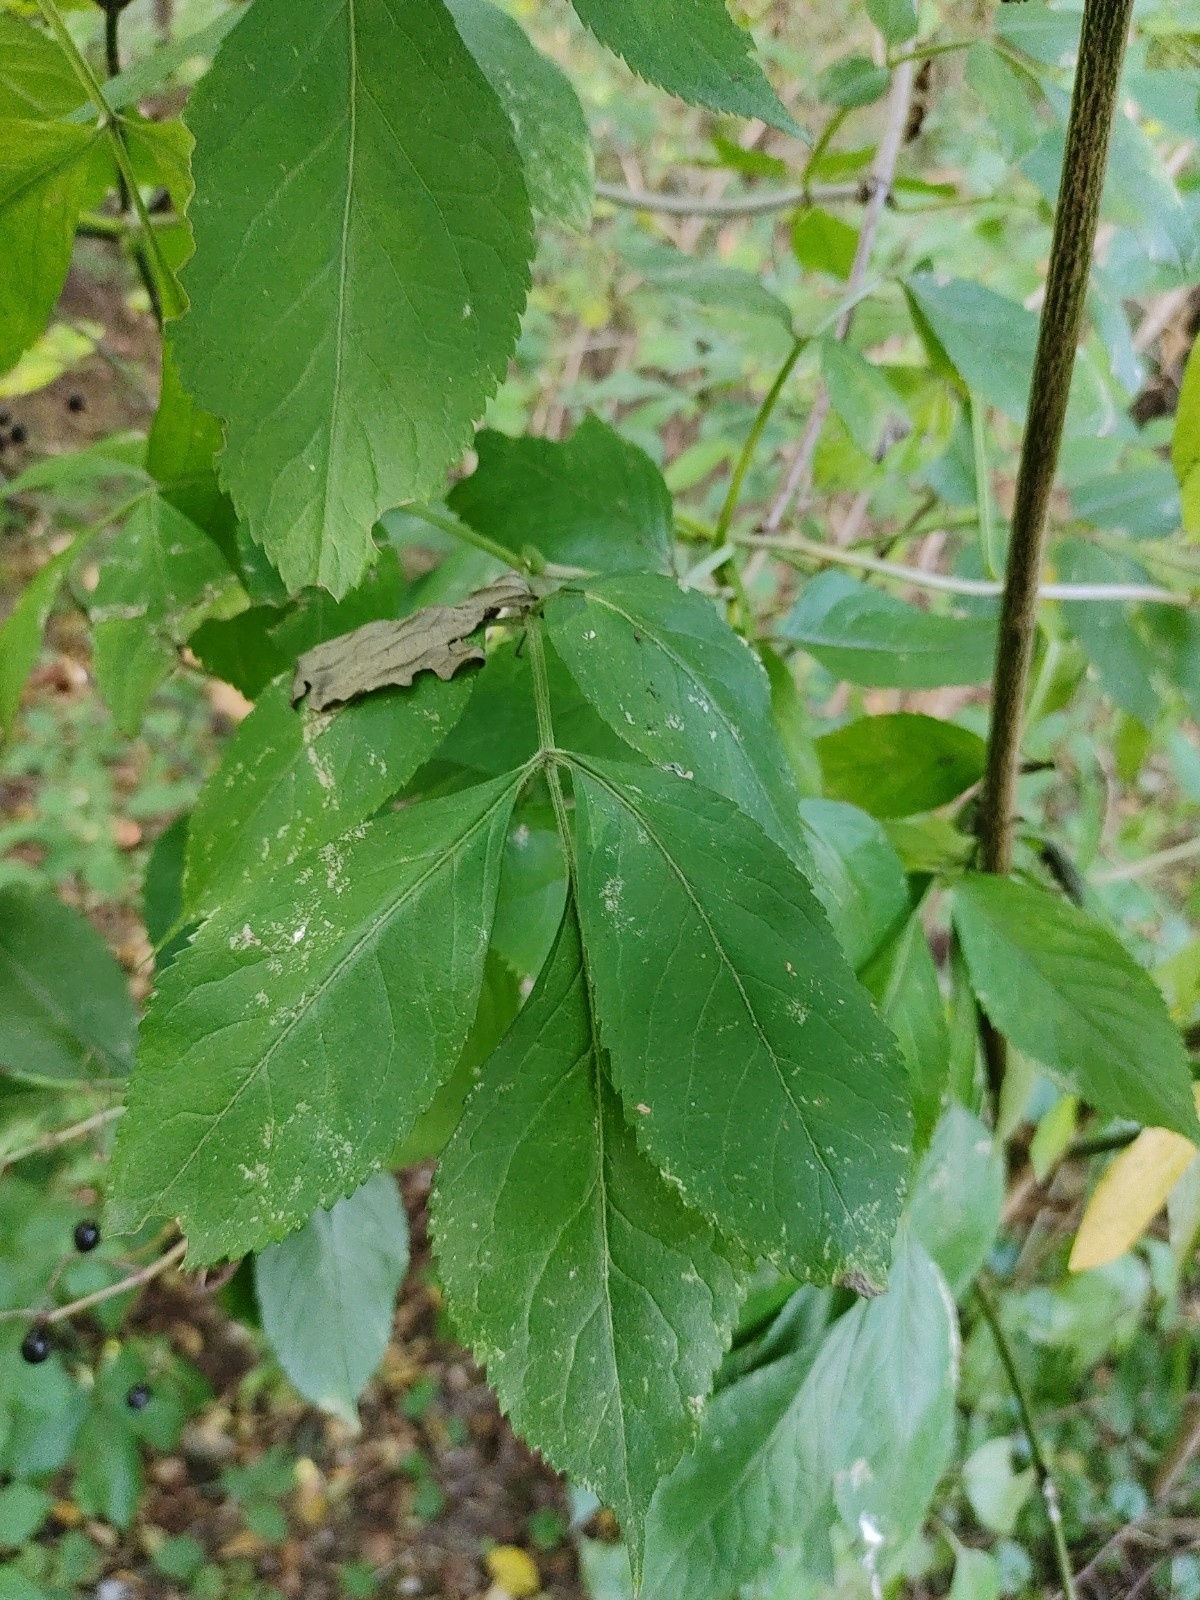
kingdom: Plantae
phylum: Tracheophyta
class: Magnoliopsida
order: Dipsacales
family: Viburnaceae
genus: Sambucus
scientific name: Sambucus nigra
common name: Elder
